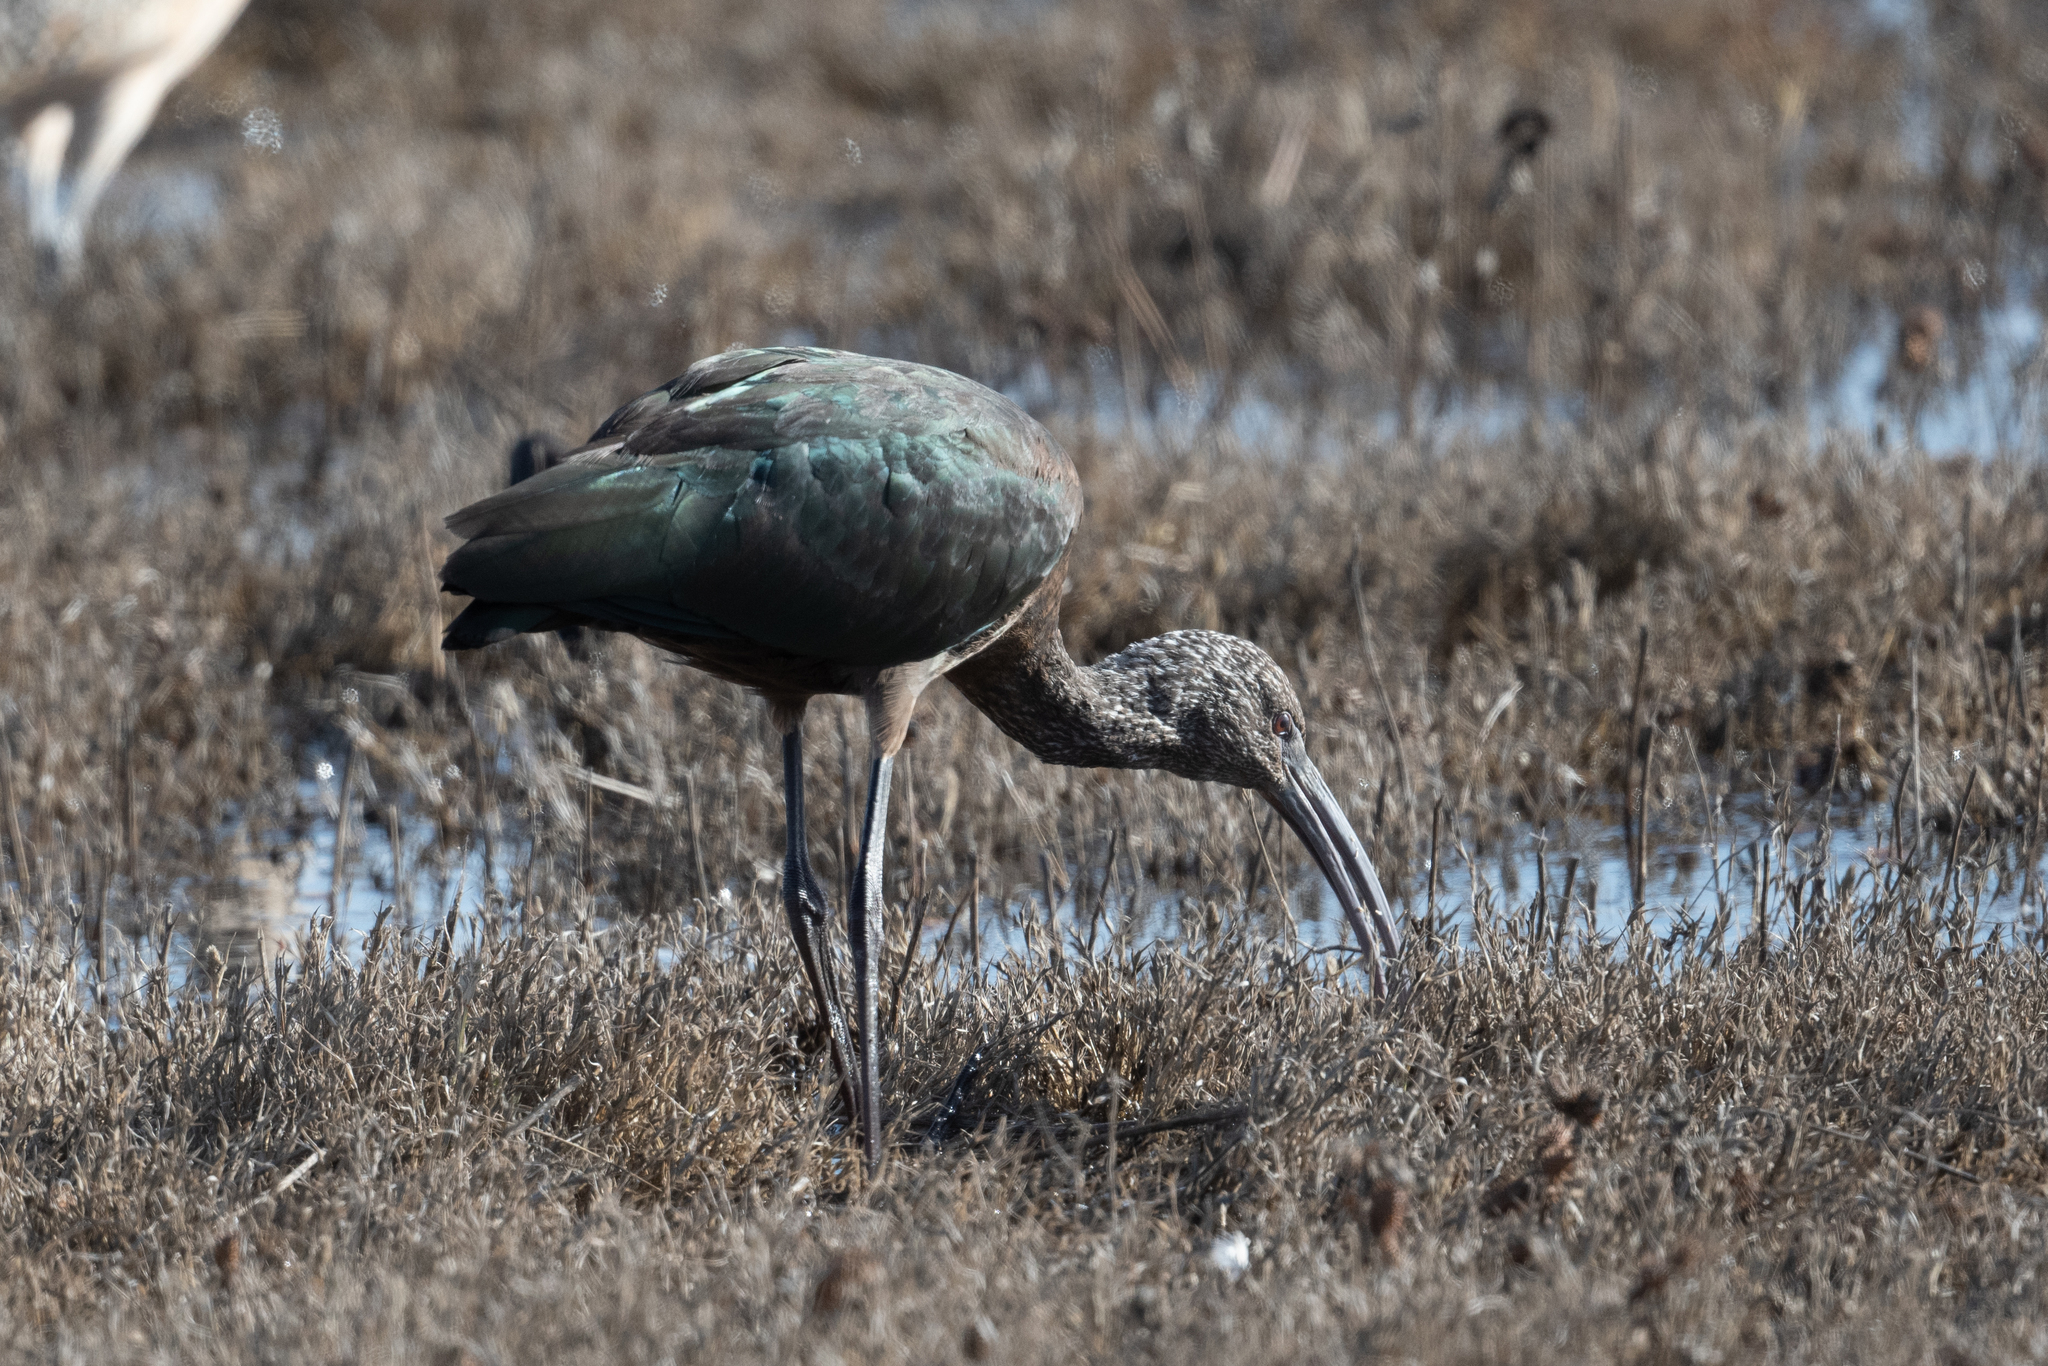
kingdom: Animalia
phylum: Chordata
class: Aves
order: Pelecaniformes
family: Threskiornithidae
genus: Plegadis
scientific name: Plegadis chihi
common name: White-faced ibis
